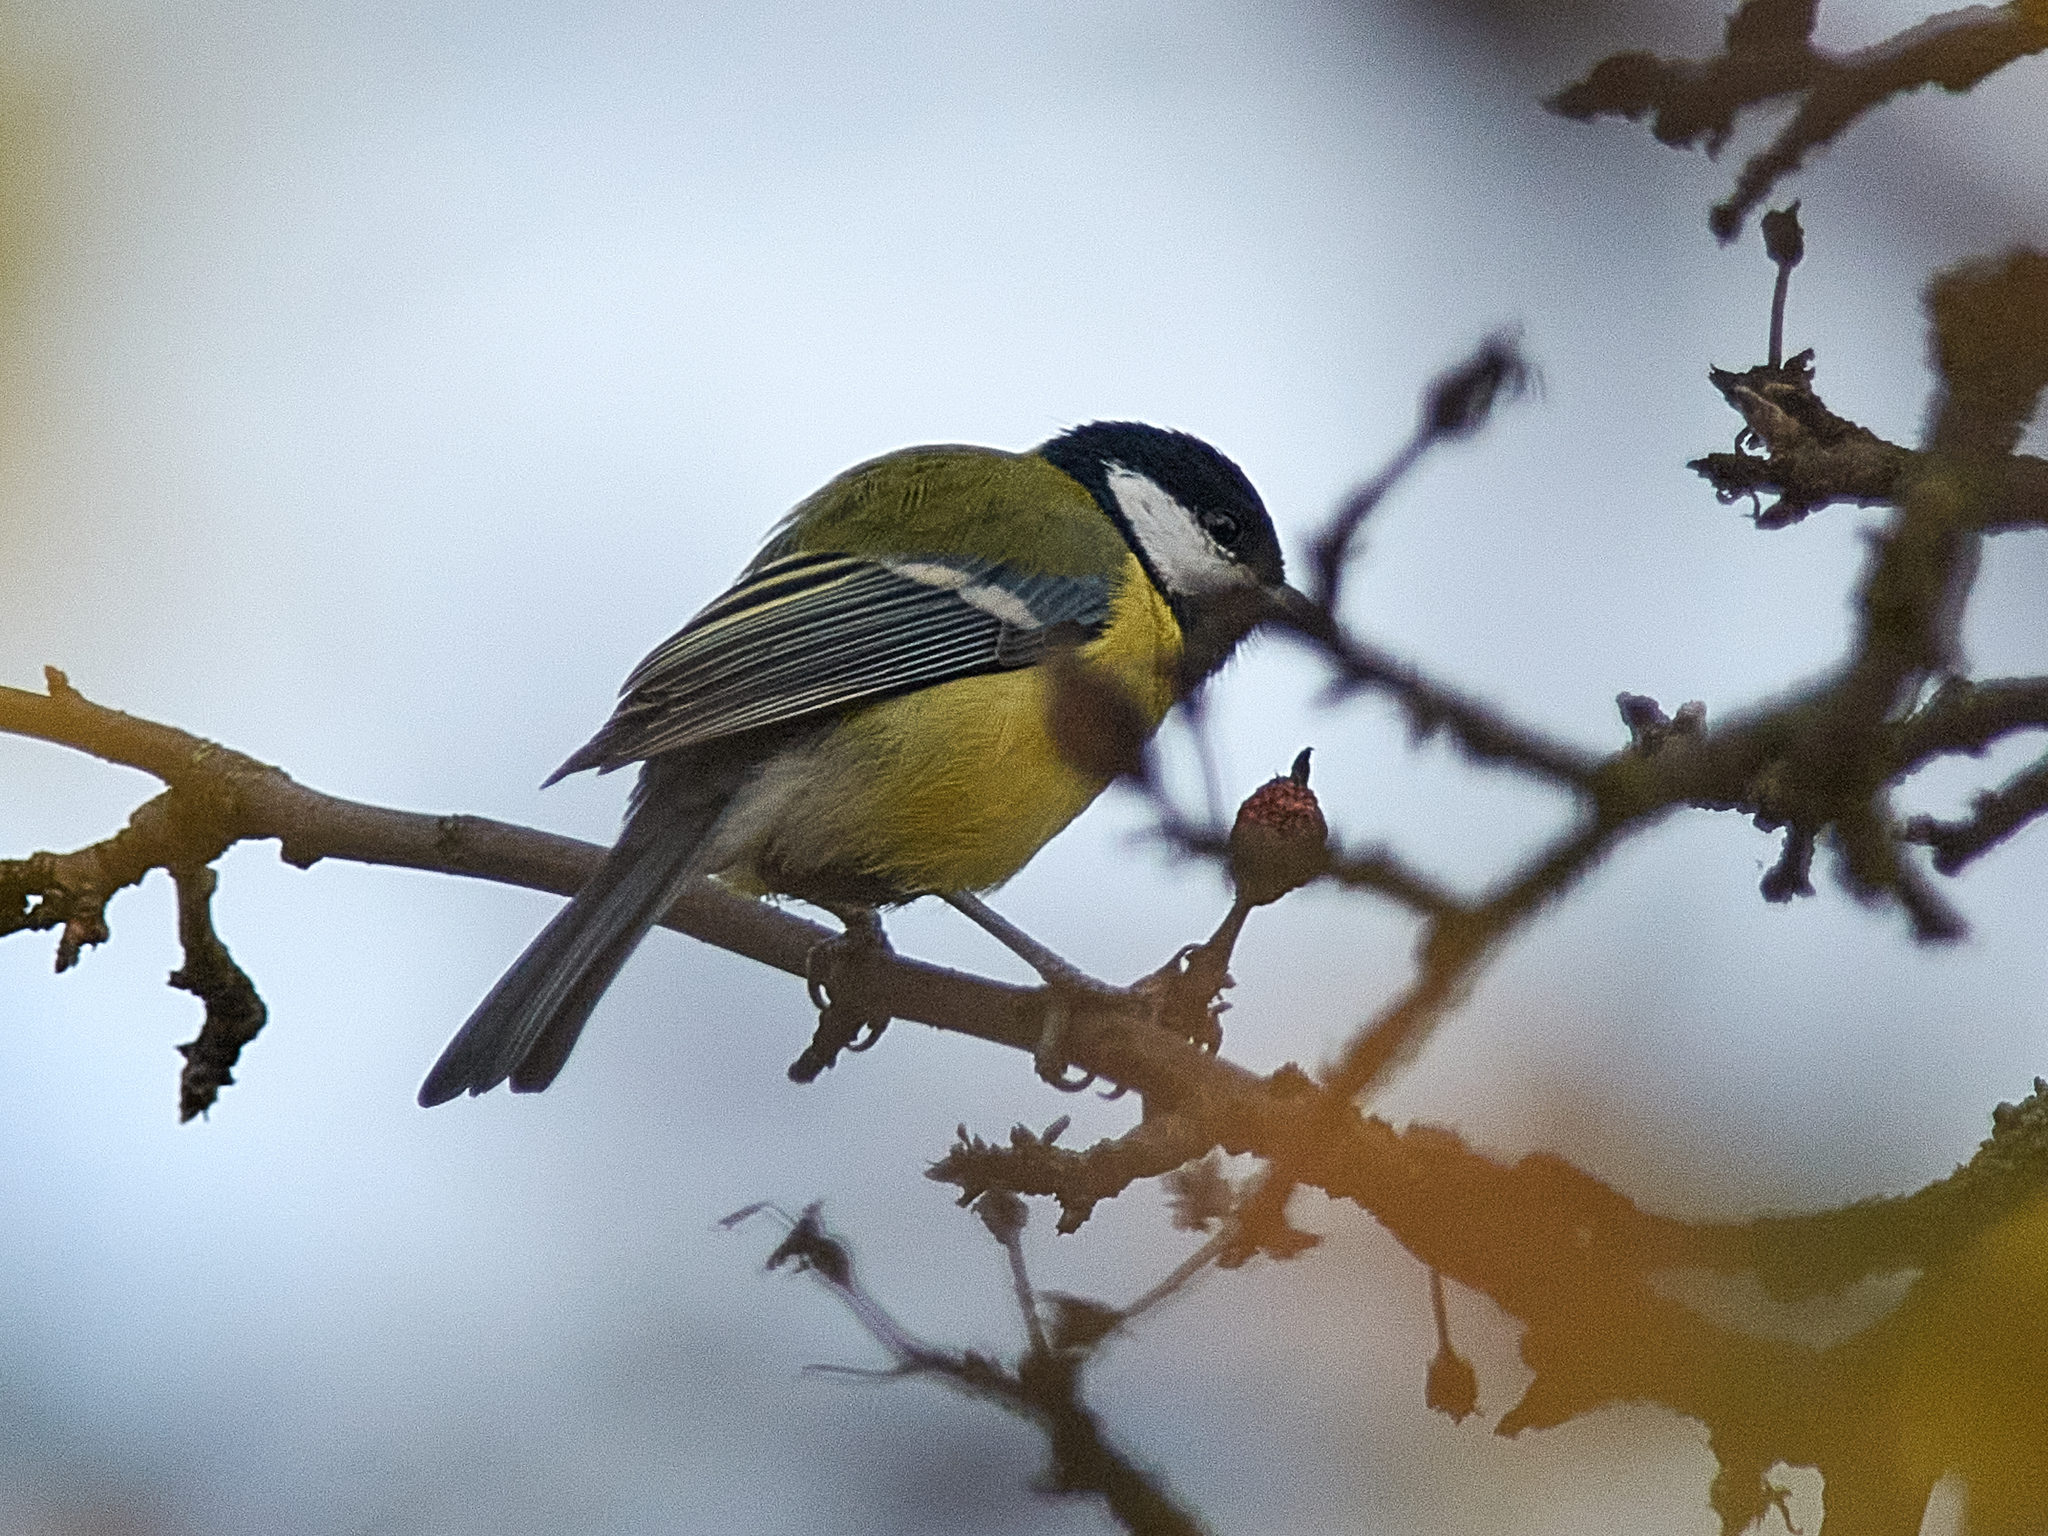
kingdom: Animalia
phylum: Chordata
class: Aves
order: Passeriformes
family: Paridae
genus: Parus
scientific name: Parus major
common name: Great tit
